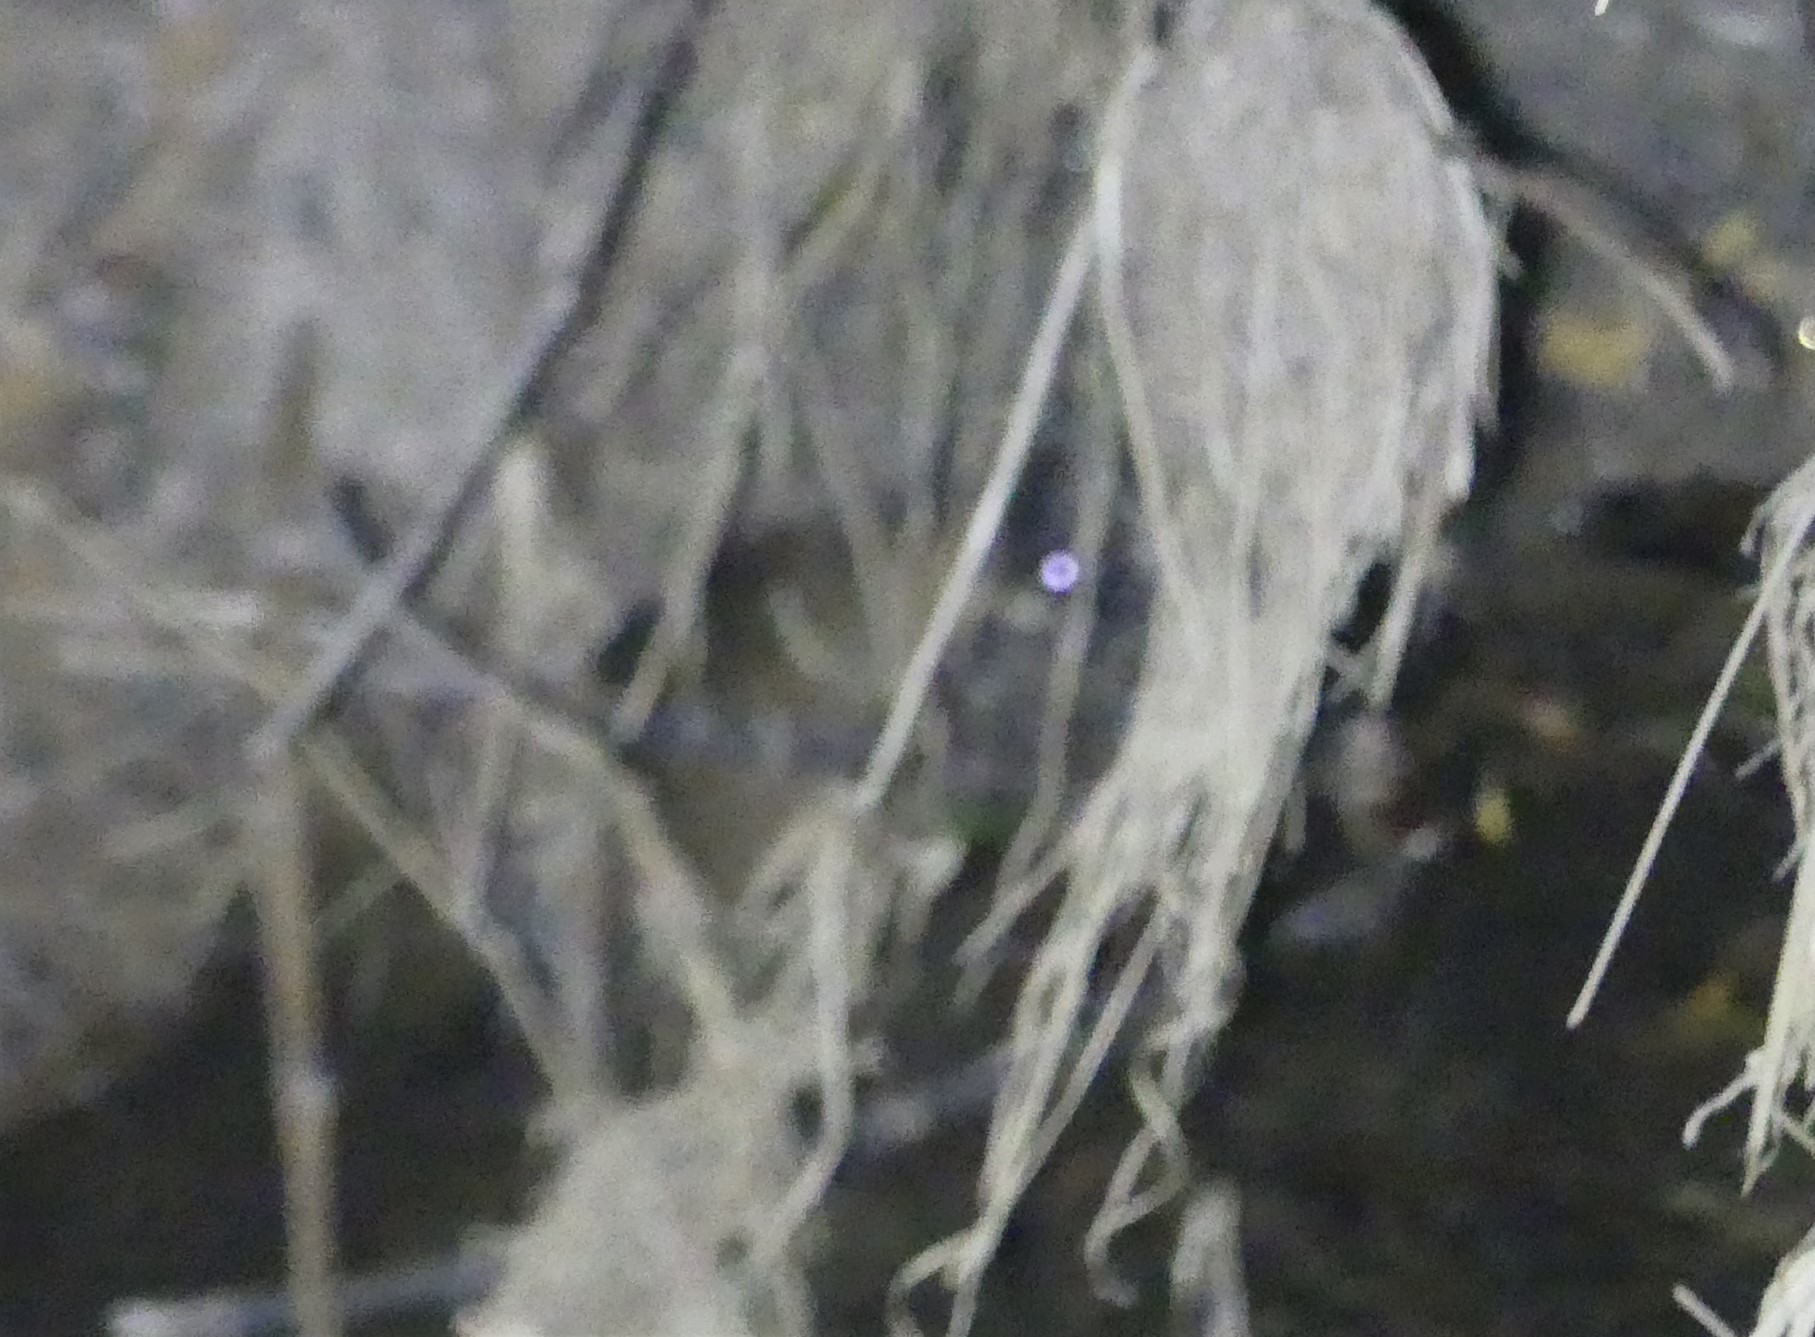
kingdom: Animalia
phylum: Chordata
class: Mammalia
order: Rodentia
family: Muridae
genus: Hydromys
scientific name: Hydromys chrysogaster
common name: Common water rat
